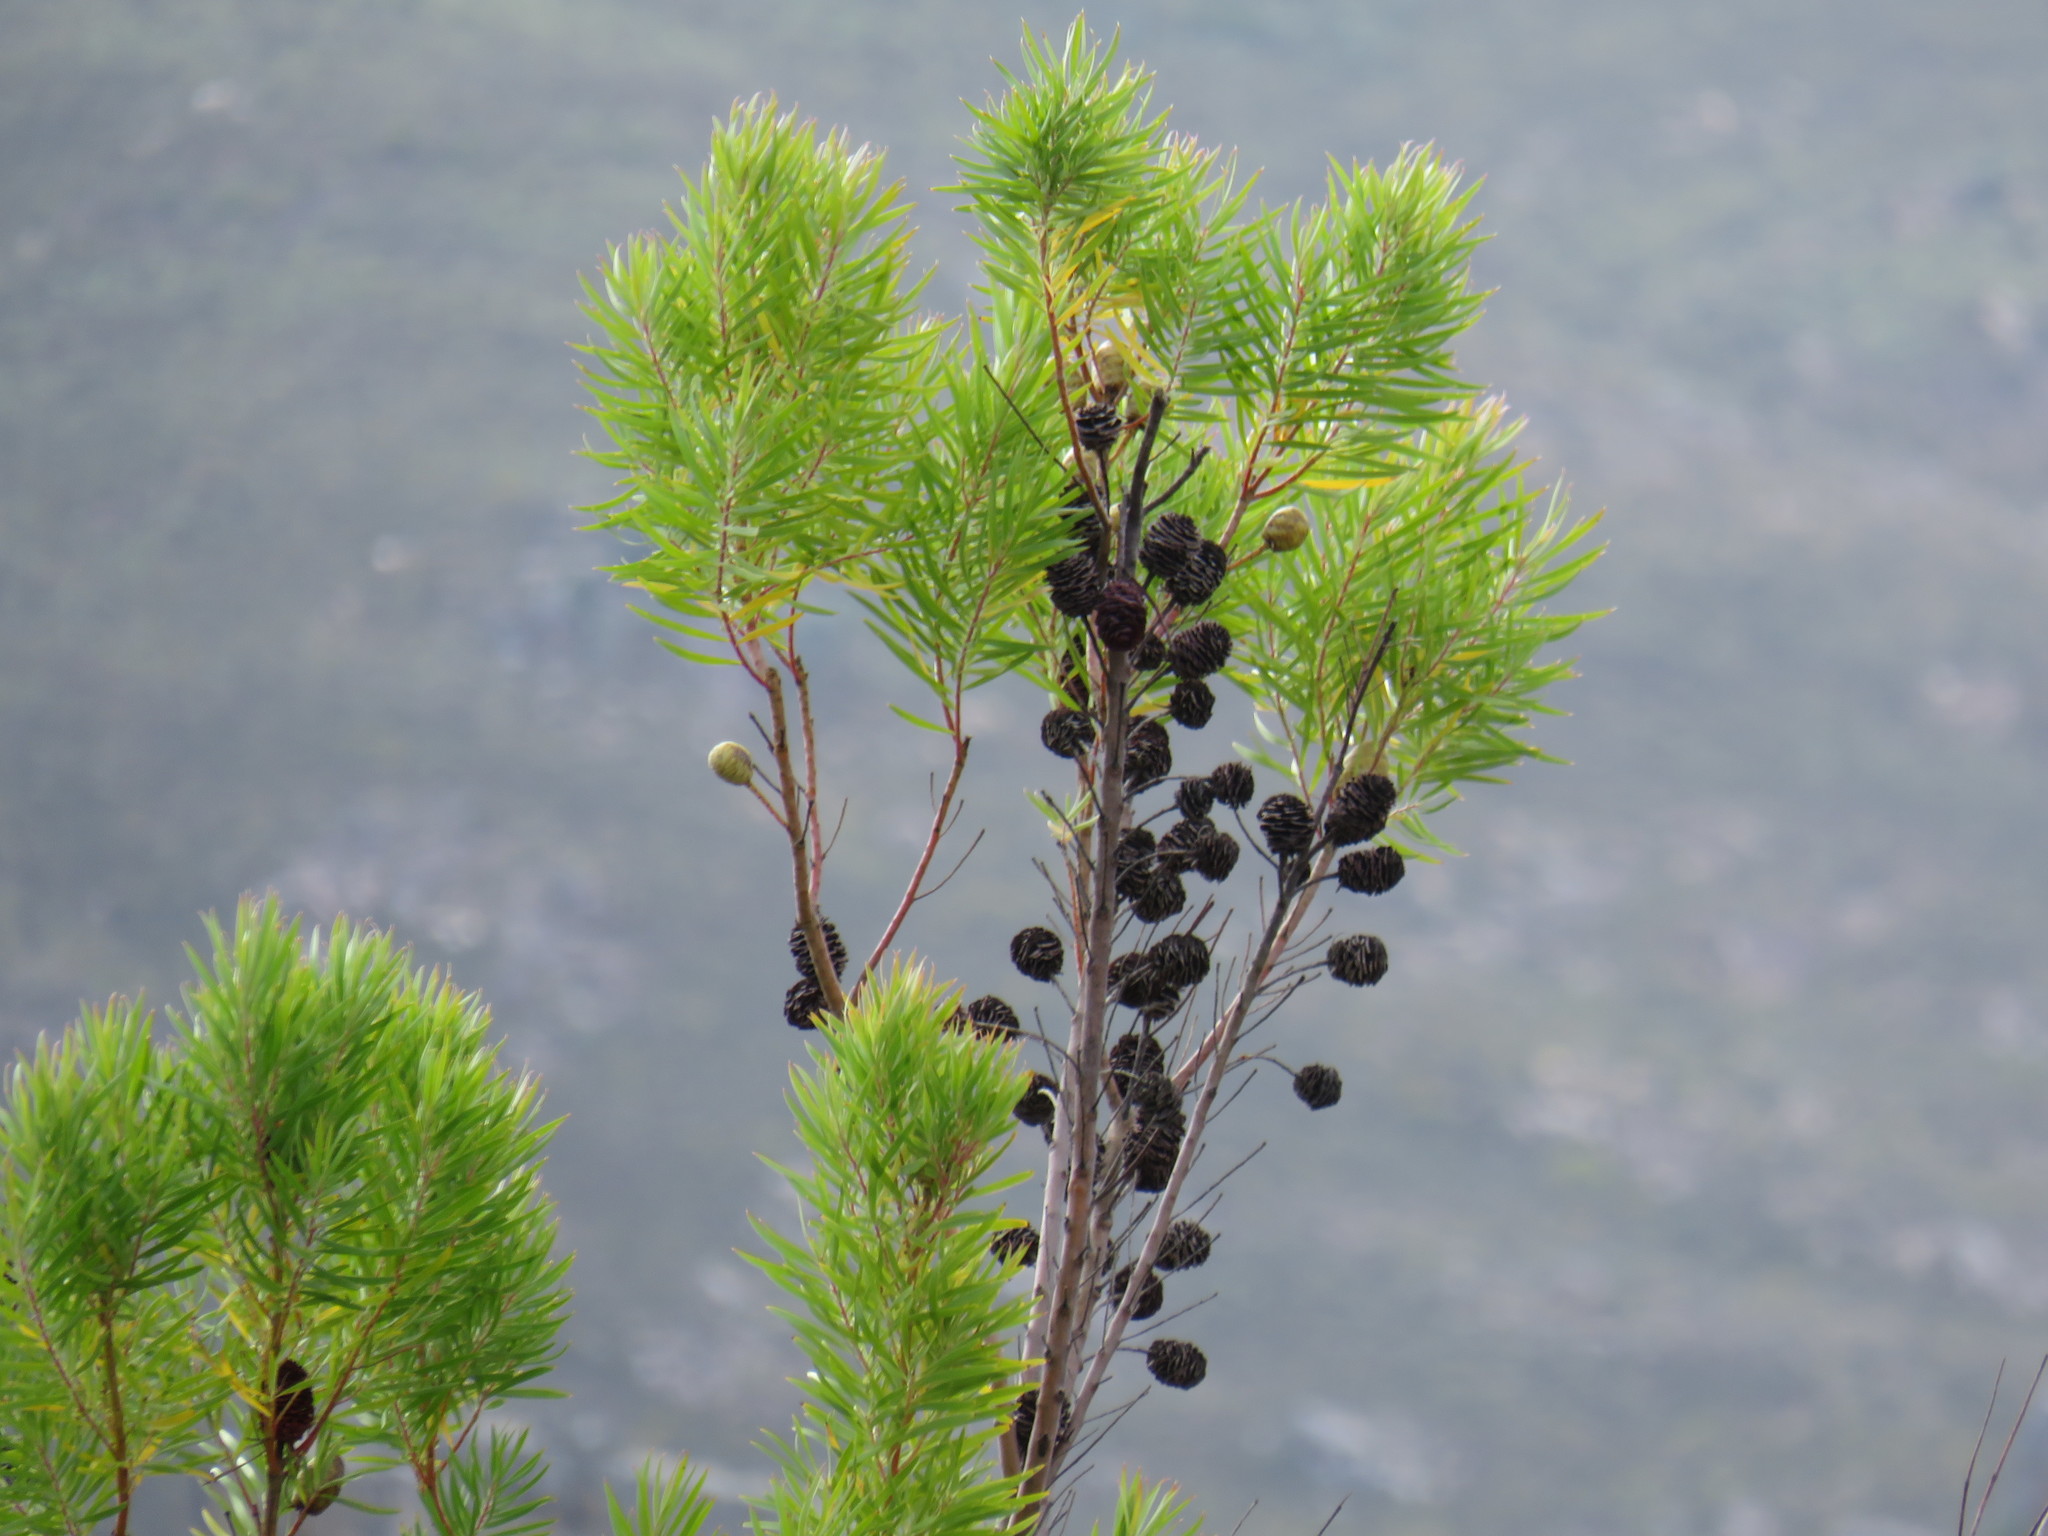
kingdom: Plantae
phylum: Tracheophyta
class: Magnoliopsida
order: Proteales
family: Proteaceae
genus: Leucadendron
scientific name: Leucadendron salicifolium
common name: Common stream conebush
